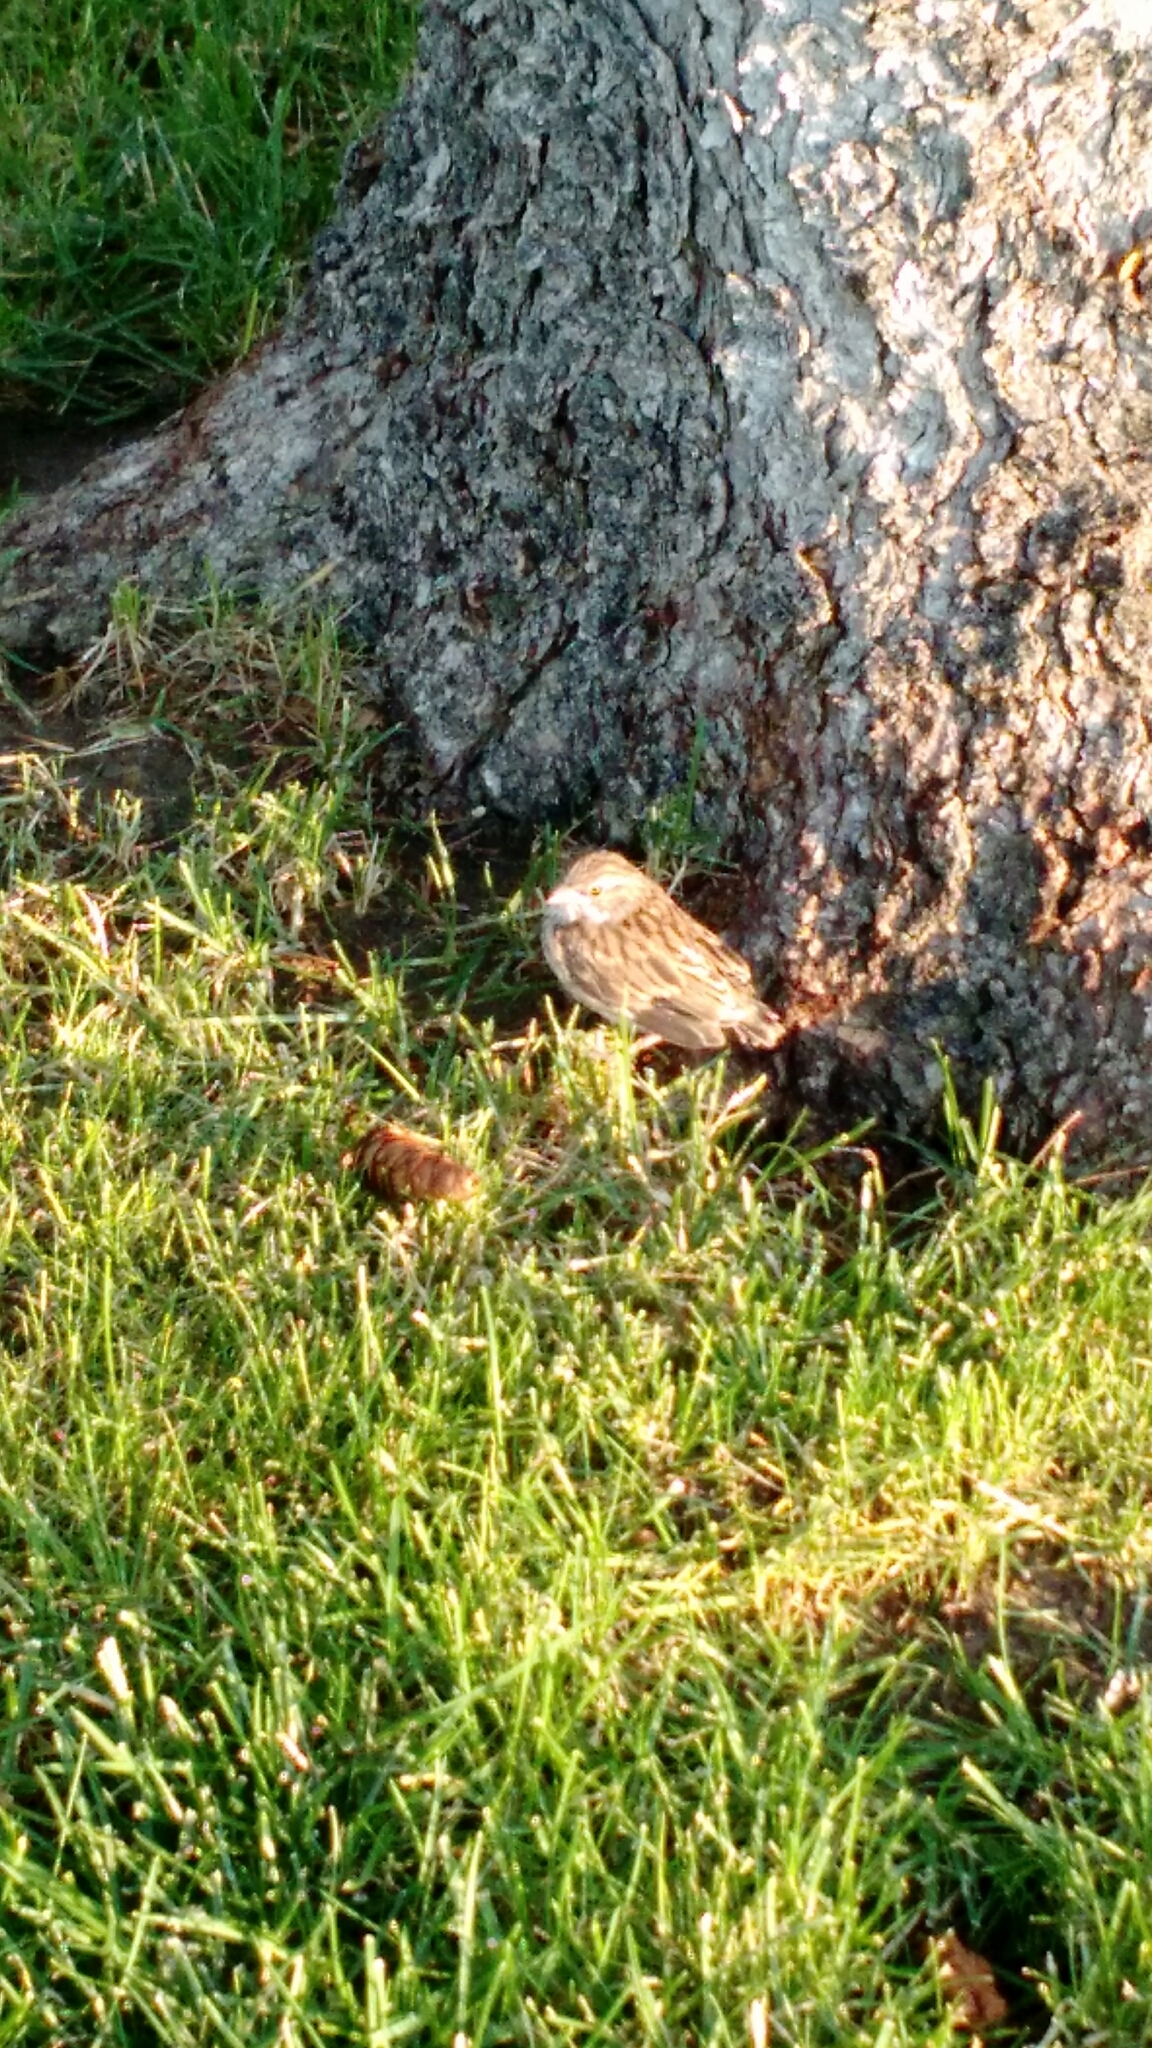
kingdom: Animalia
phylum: Chordata
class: Aves
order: Passeriformes
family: Passerellidae
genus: Spizella
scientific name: Spizella passerina
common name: Chipping sparrow
